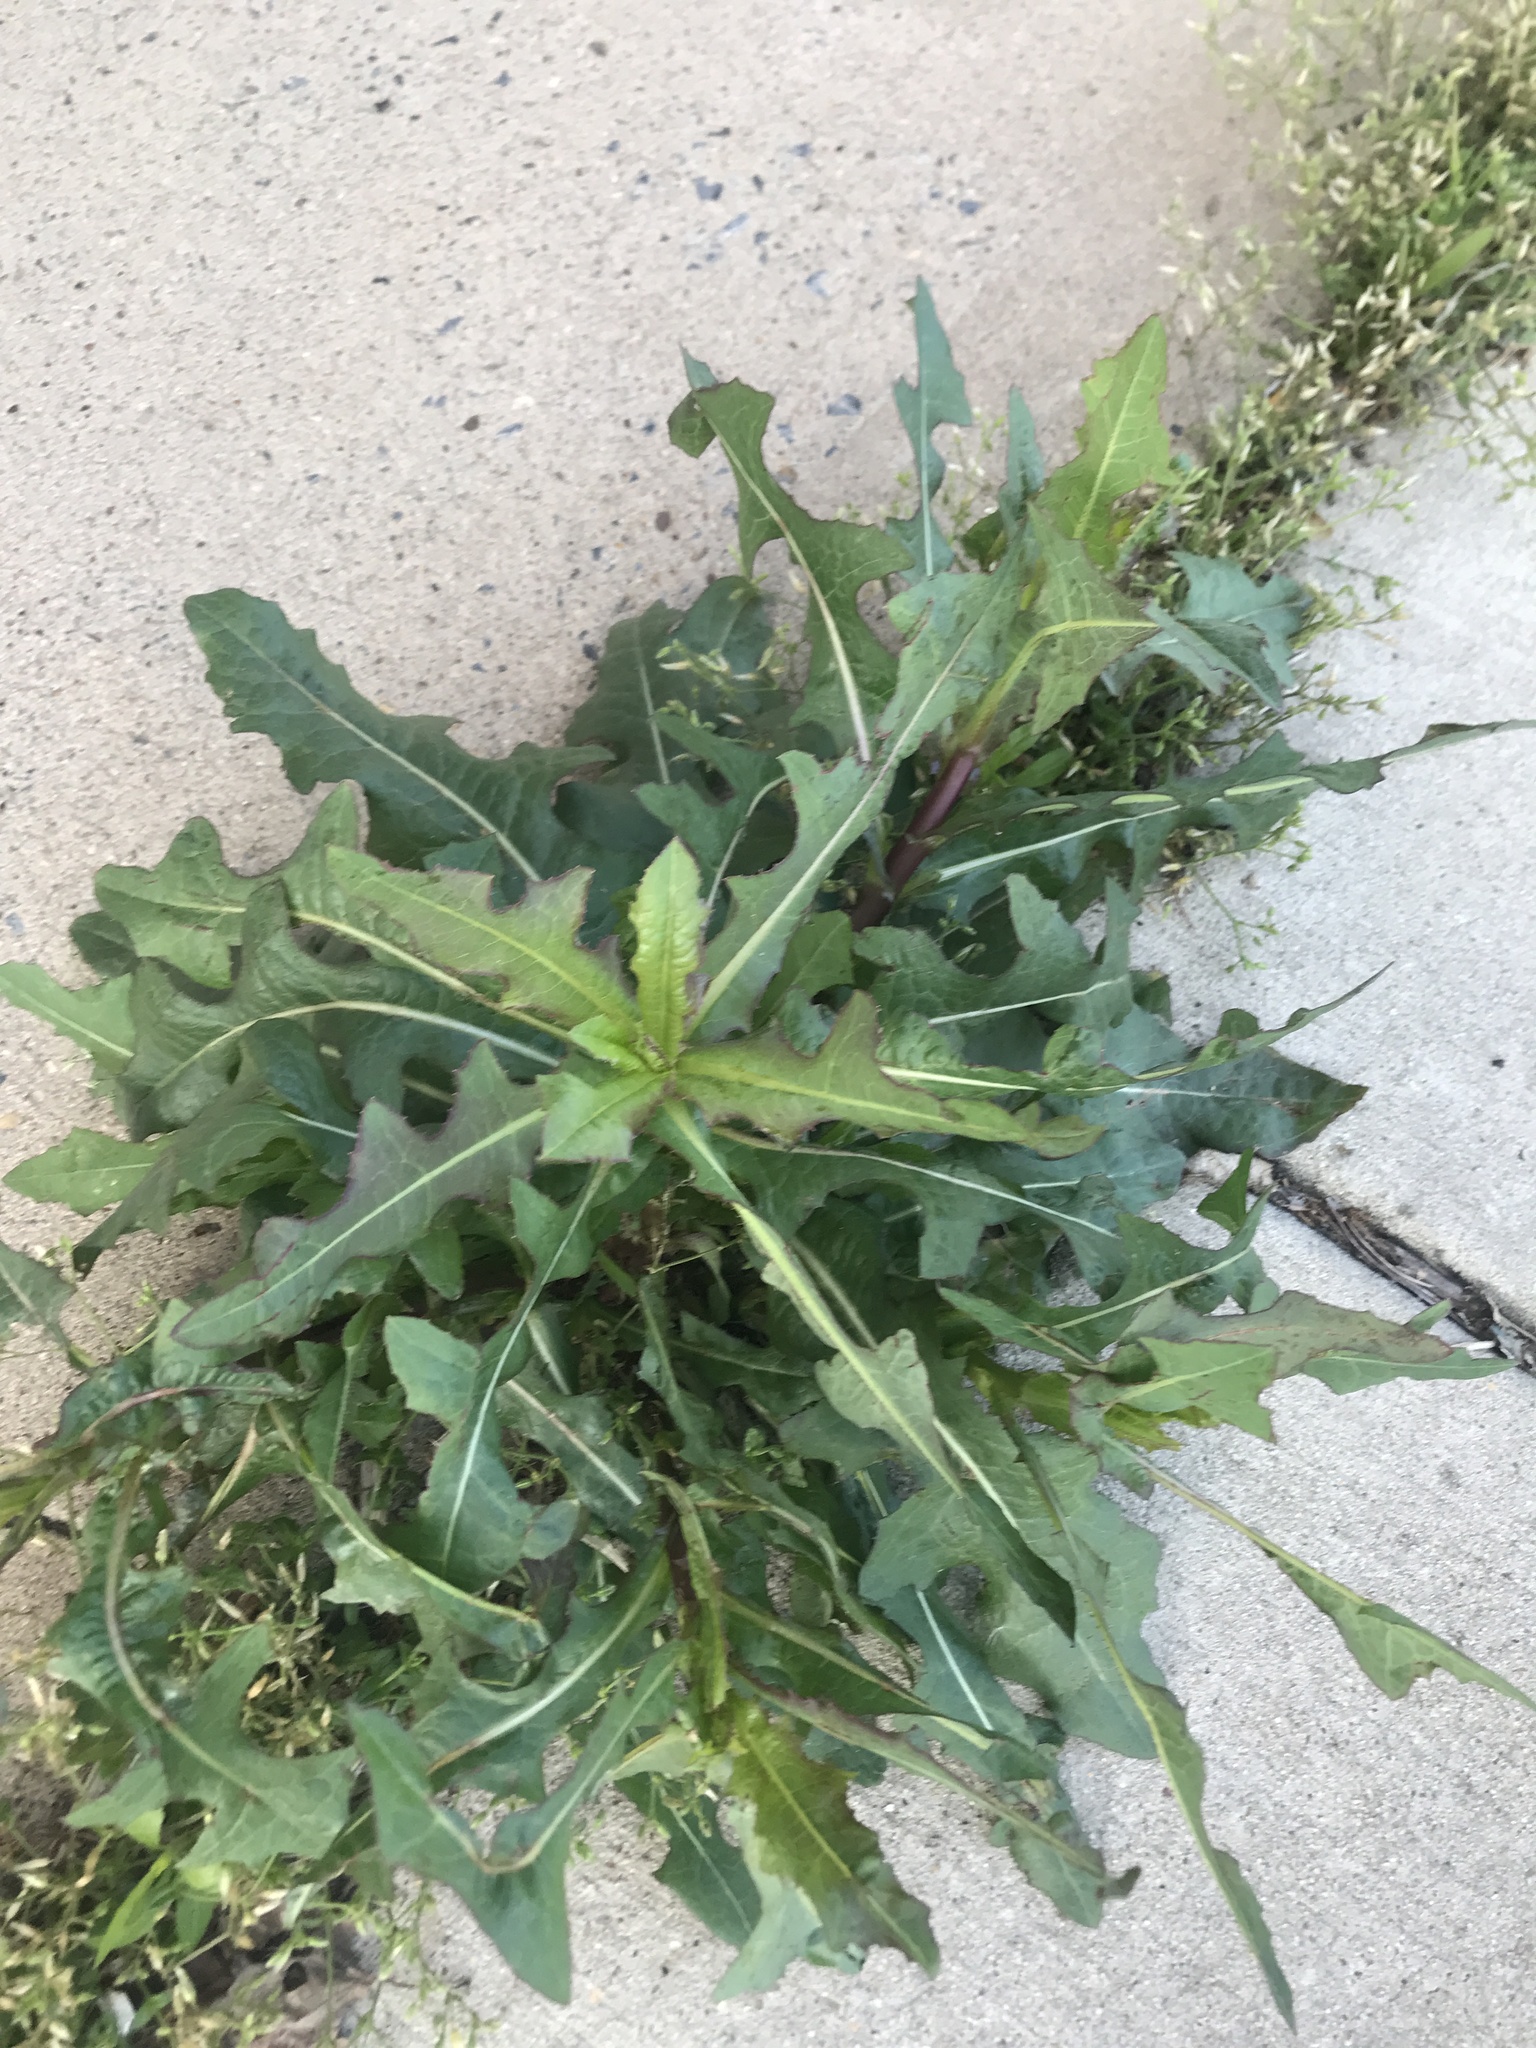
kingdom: Plantae
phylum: Tracheophyta
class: Magnoliopsida
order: Asterales
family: Asteraceae
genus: Lactuca
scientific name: Lactuca serriola
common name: Prickly lettuce
